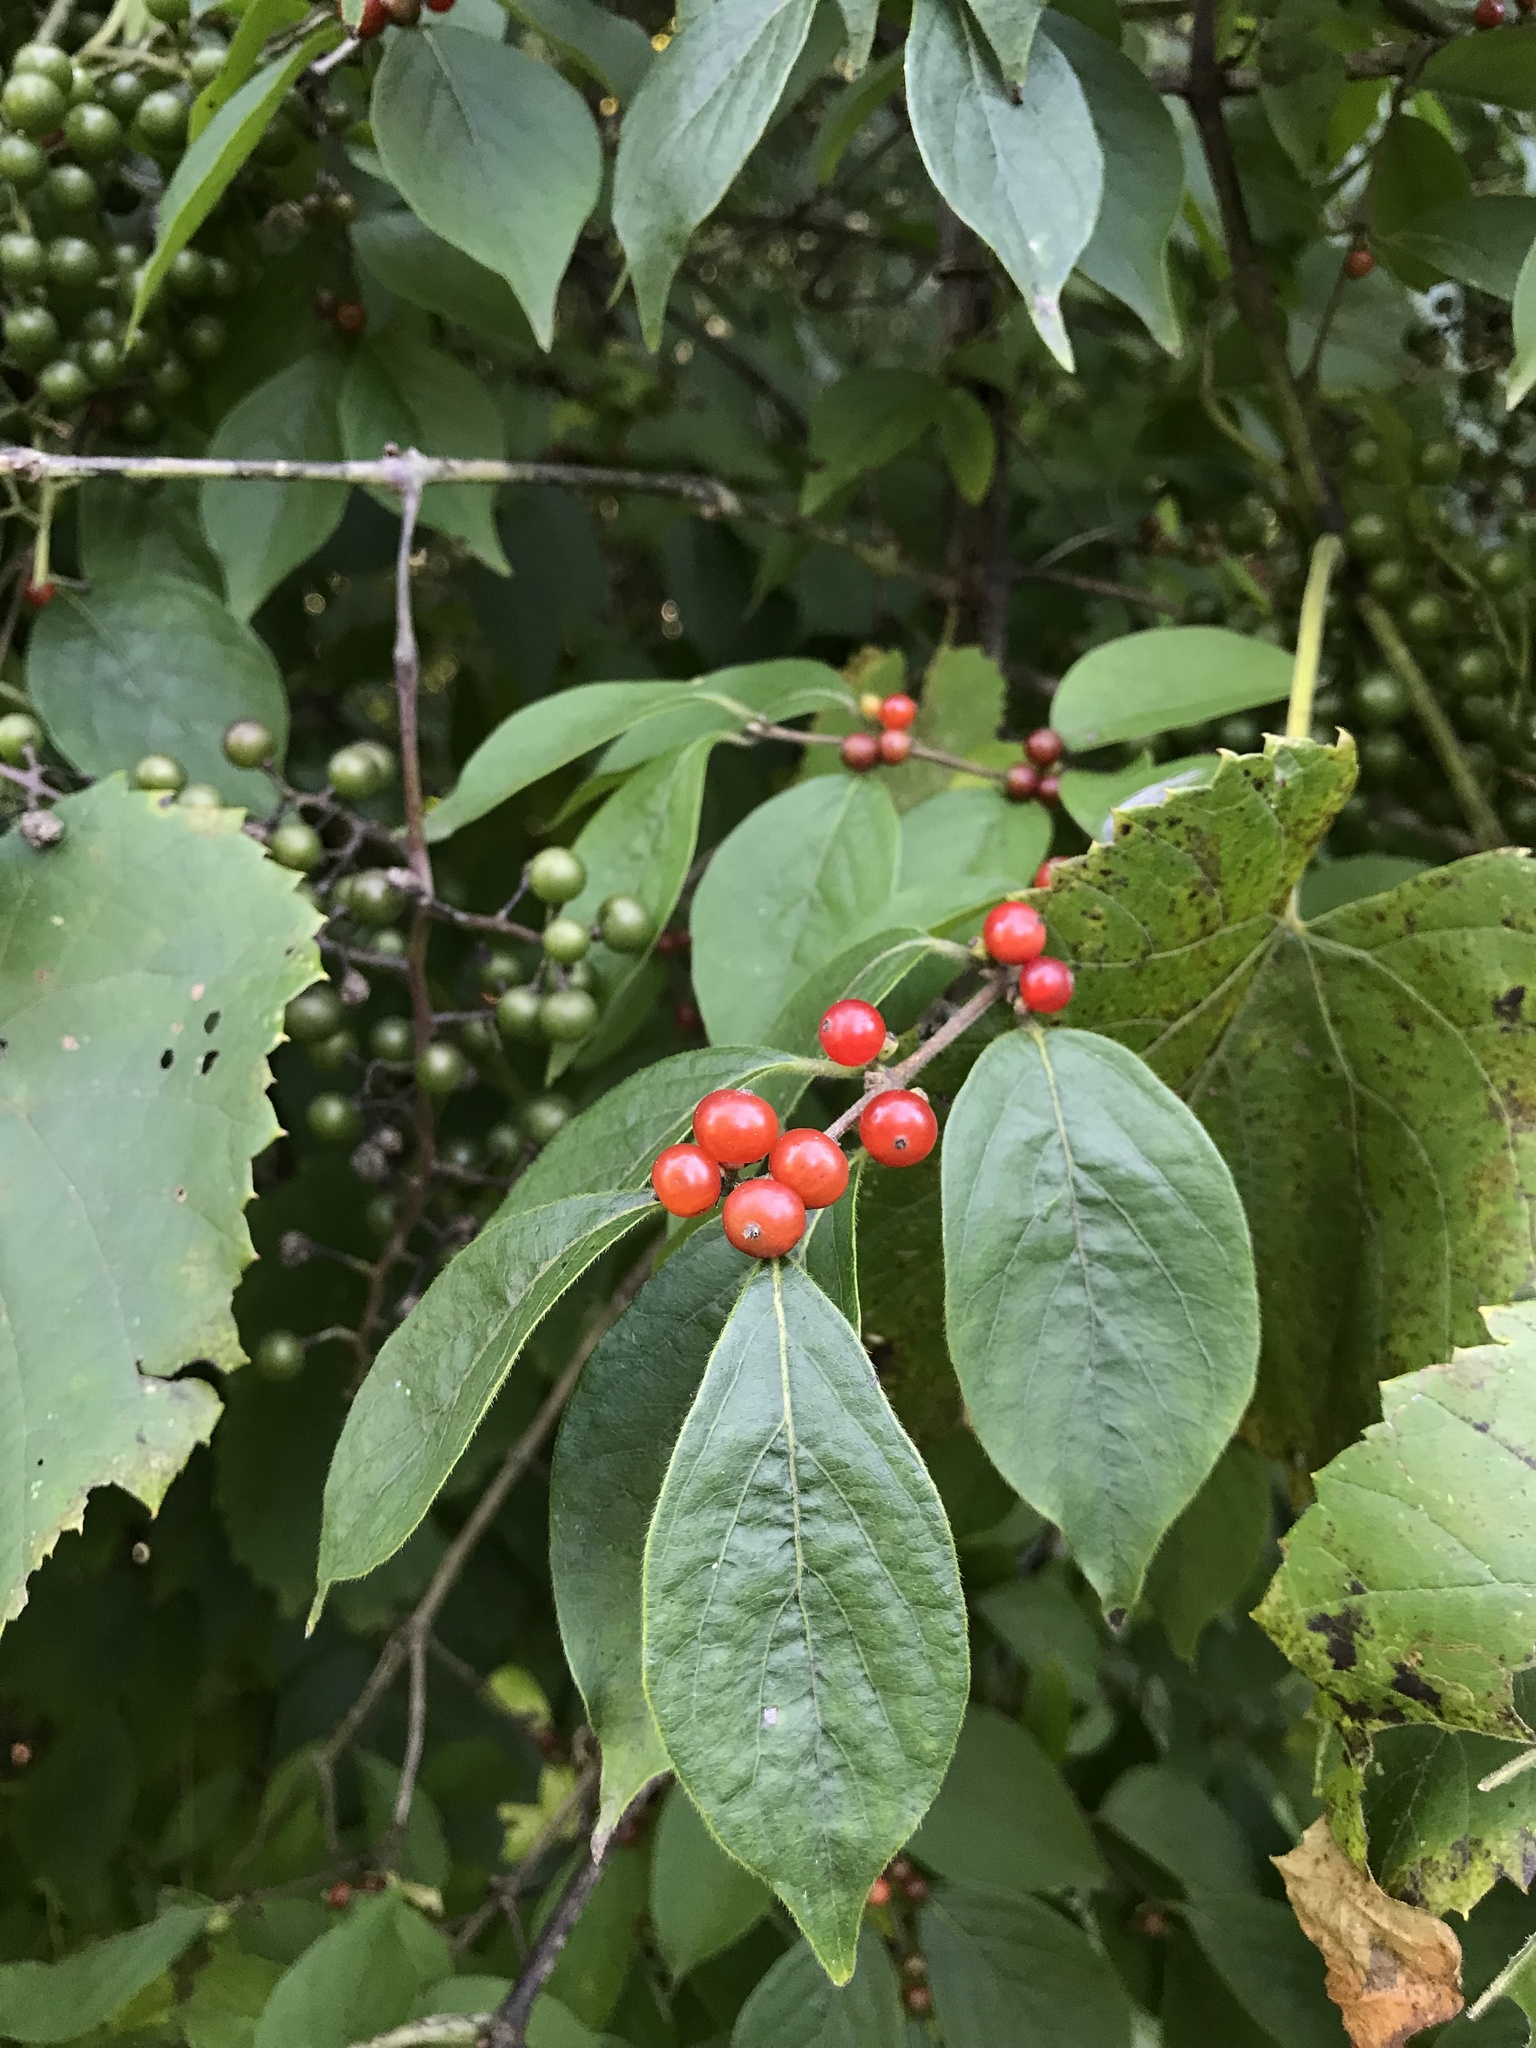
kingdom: Plantae
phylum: Tracheophyta
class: Magnoliopsida
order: Dipsacales
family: Caprifoliaceae
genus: Lonicera
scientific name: Lonicera maackii
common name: Amur honeysuckle
